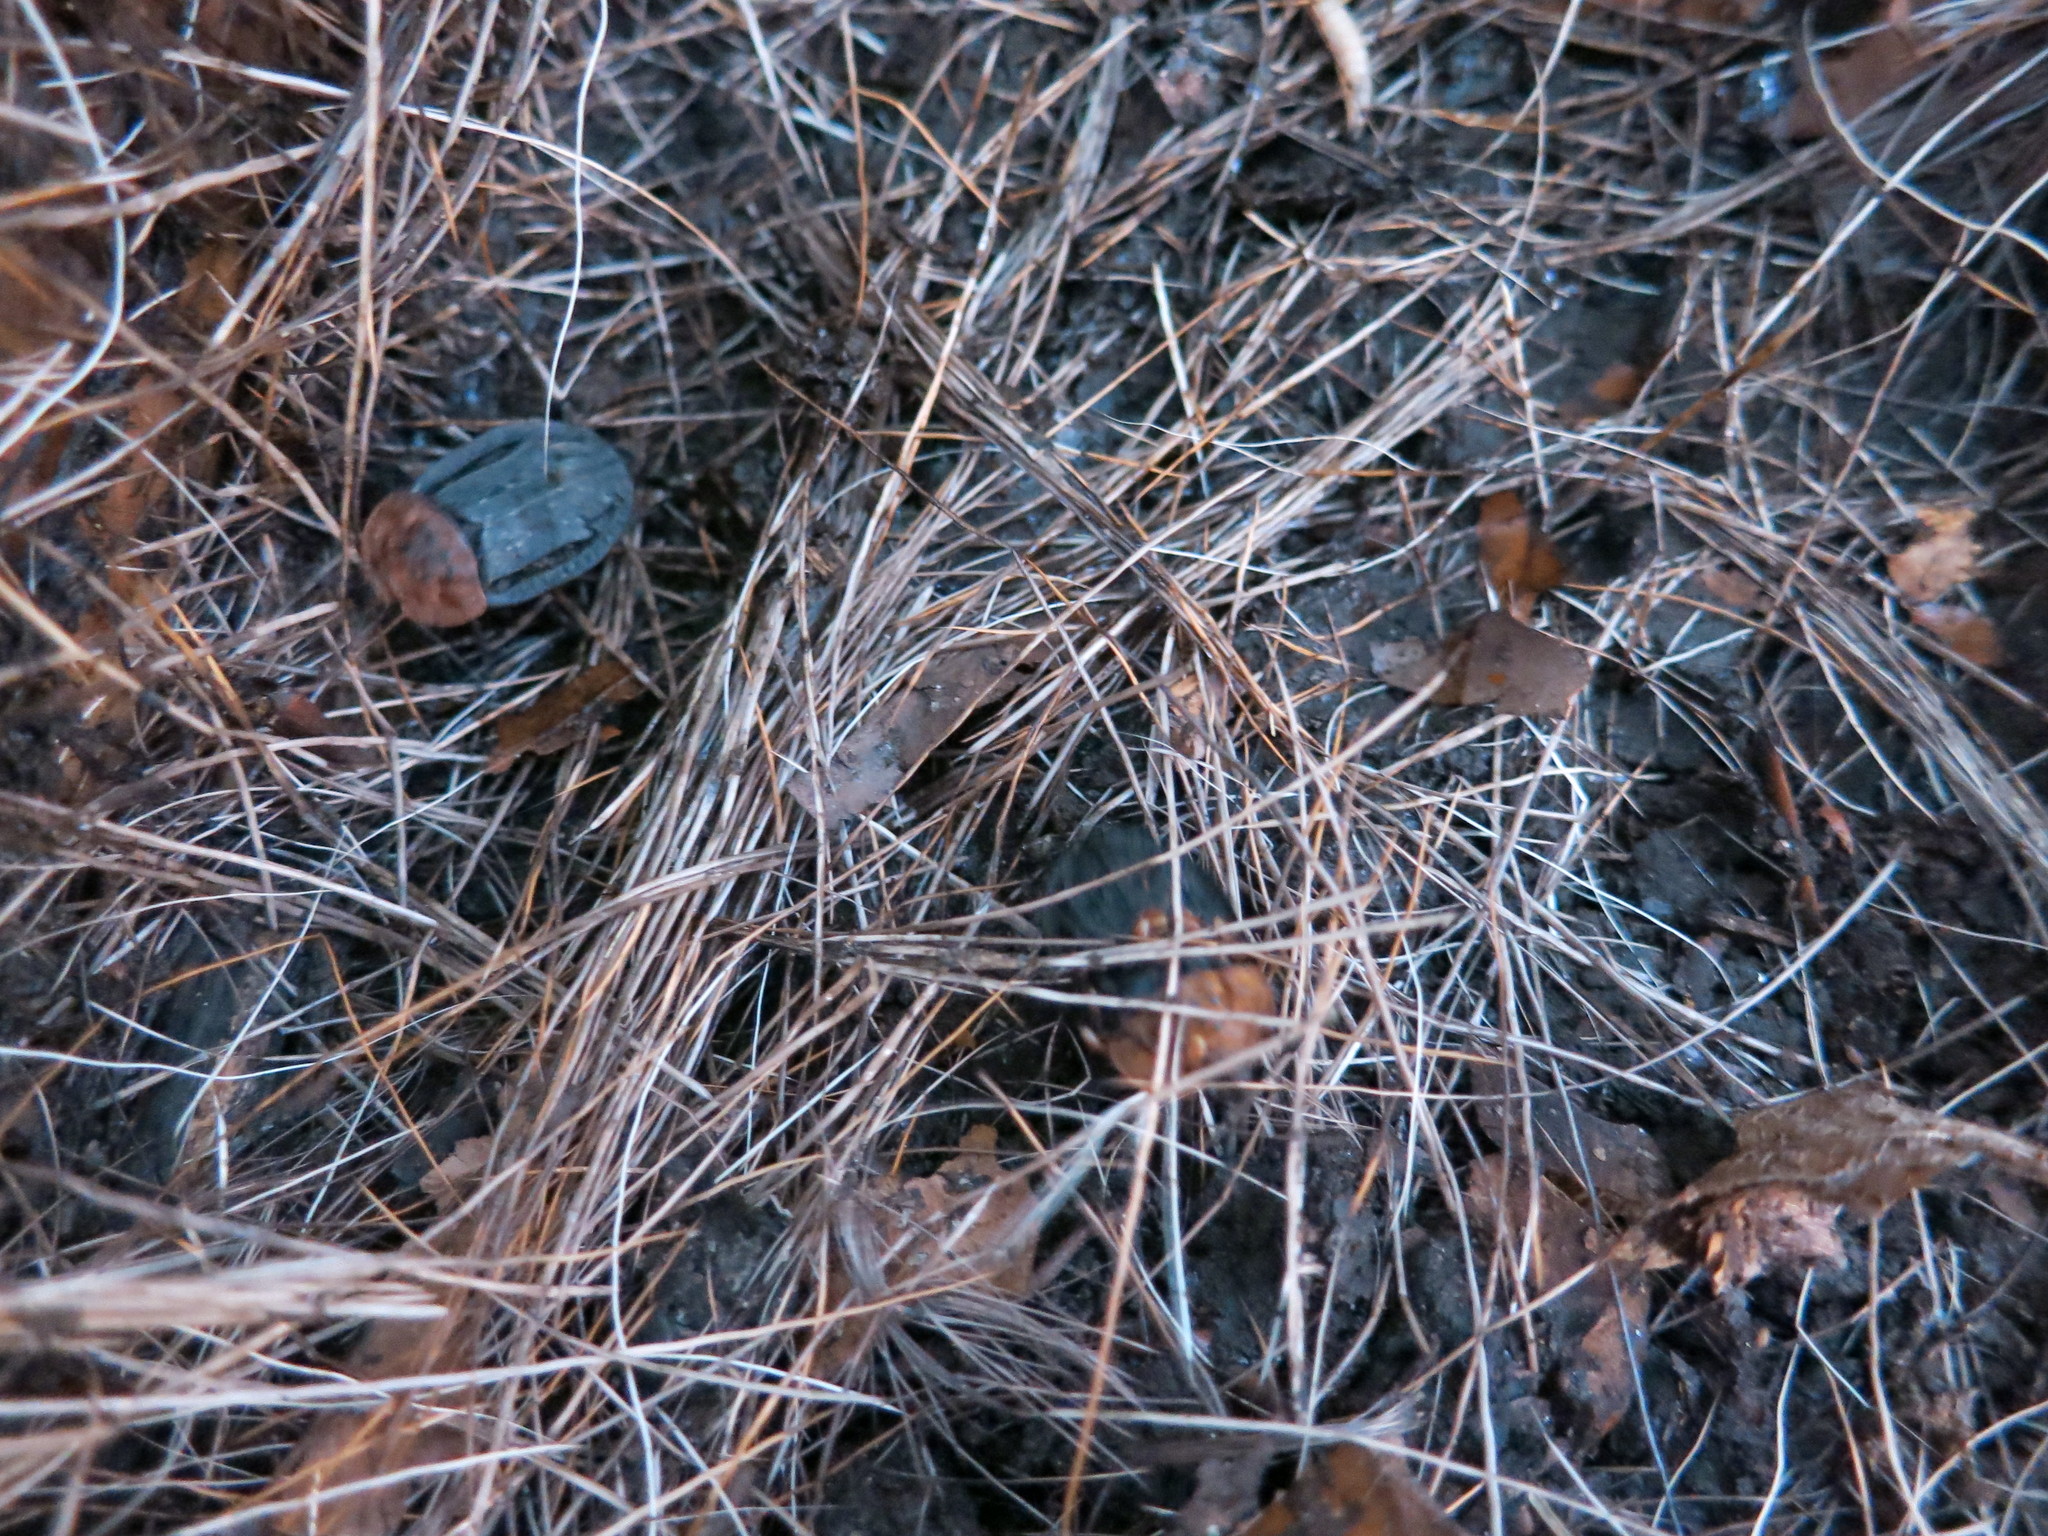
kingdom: Animalia
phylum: Arthropoda
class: Insecta
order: Coleoptera
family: Staphylinidae
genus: Oiceoptoma
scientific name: Oiceoptoma thoracicum
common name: Red-breasted carrion beetle
